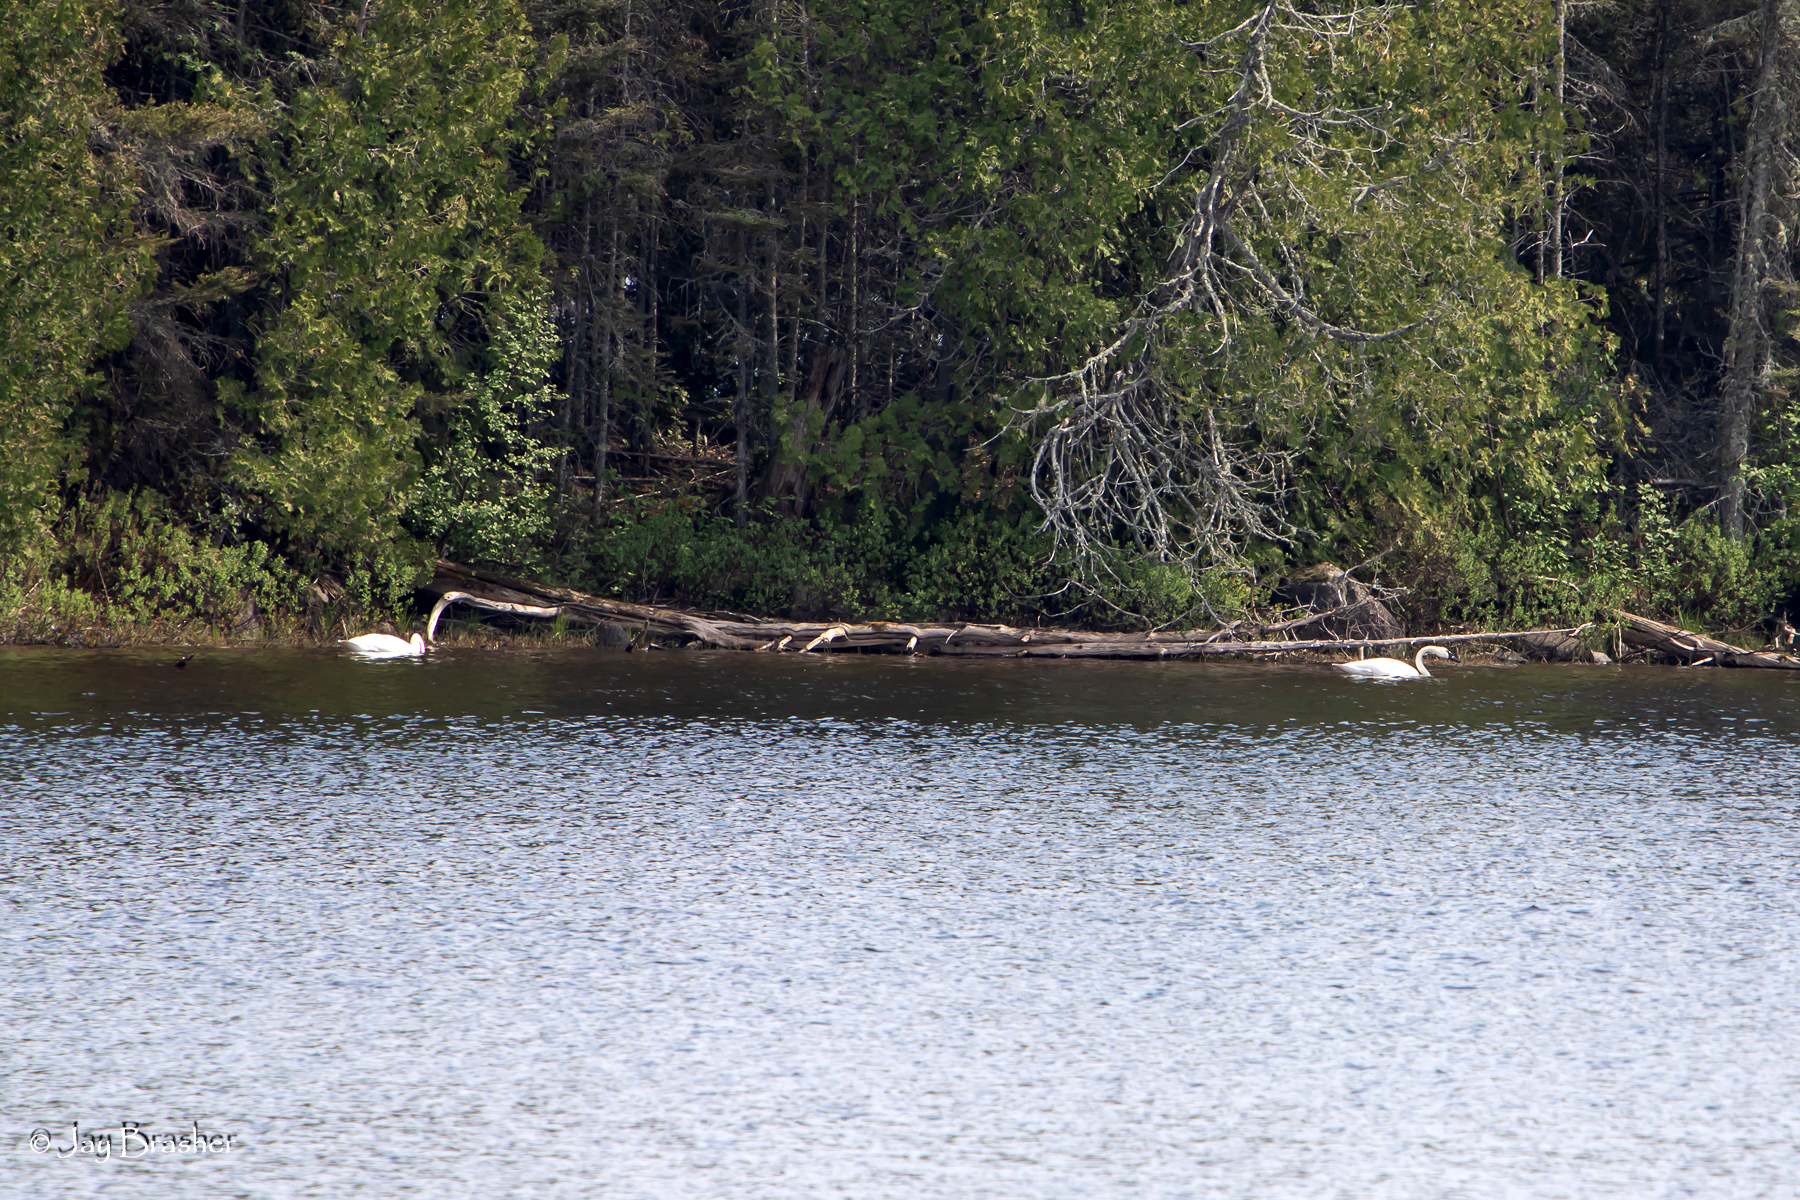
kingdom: Animalia
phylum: Chordata
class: Aves
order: Anseriformes
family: Anatidae
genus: Cygnus
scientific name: Cygnus buccinator
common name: Trumpeter swan
